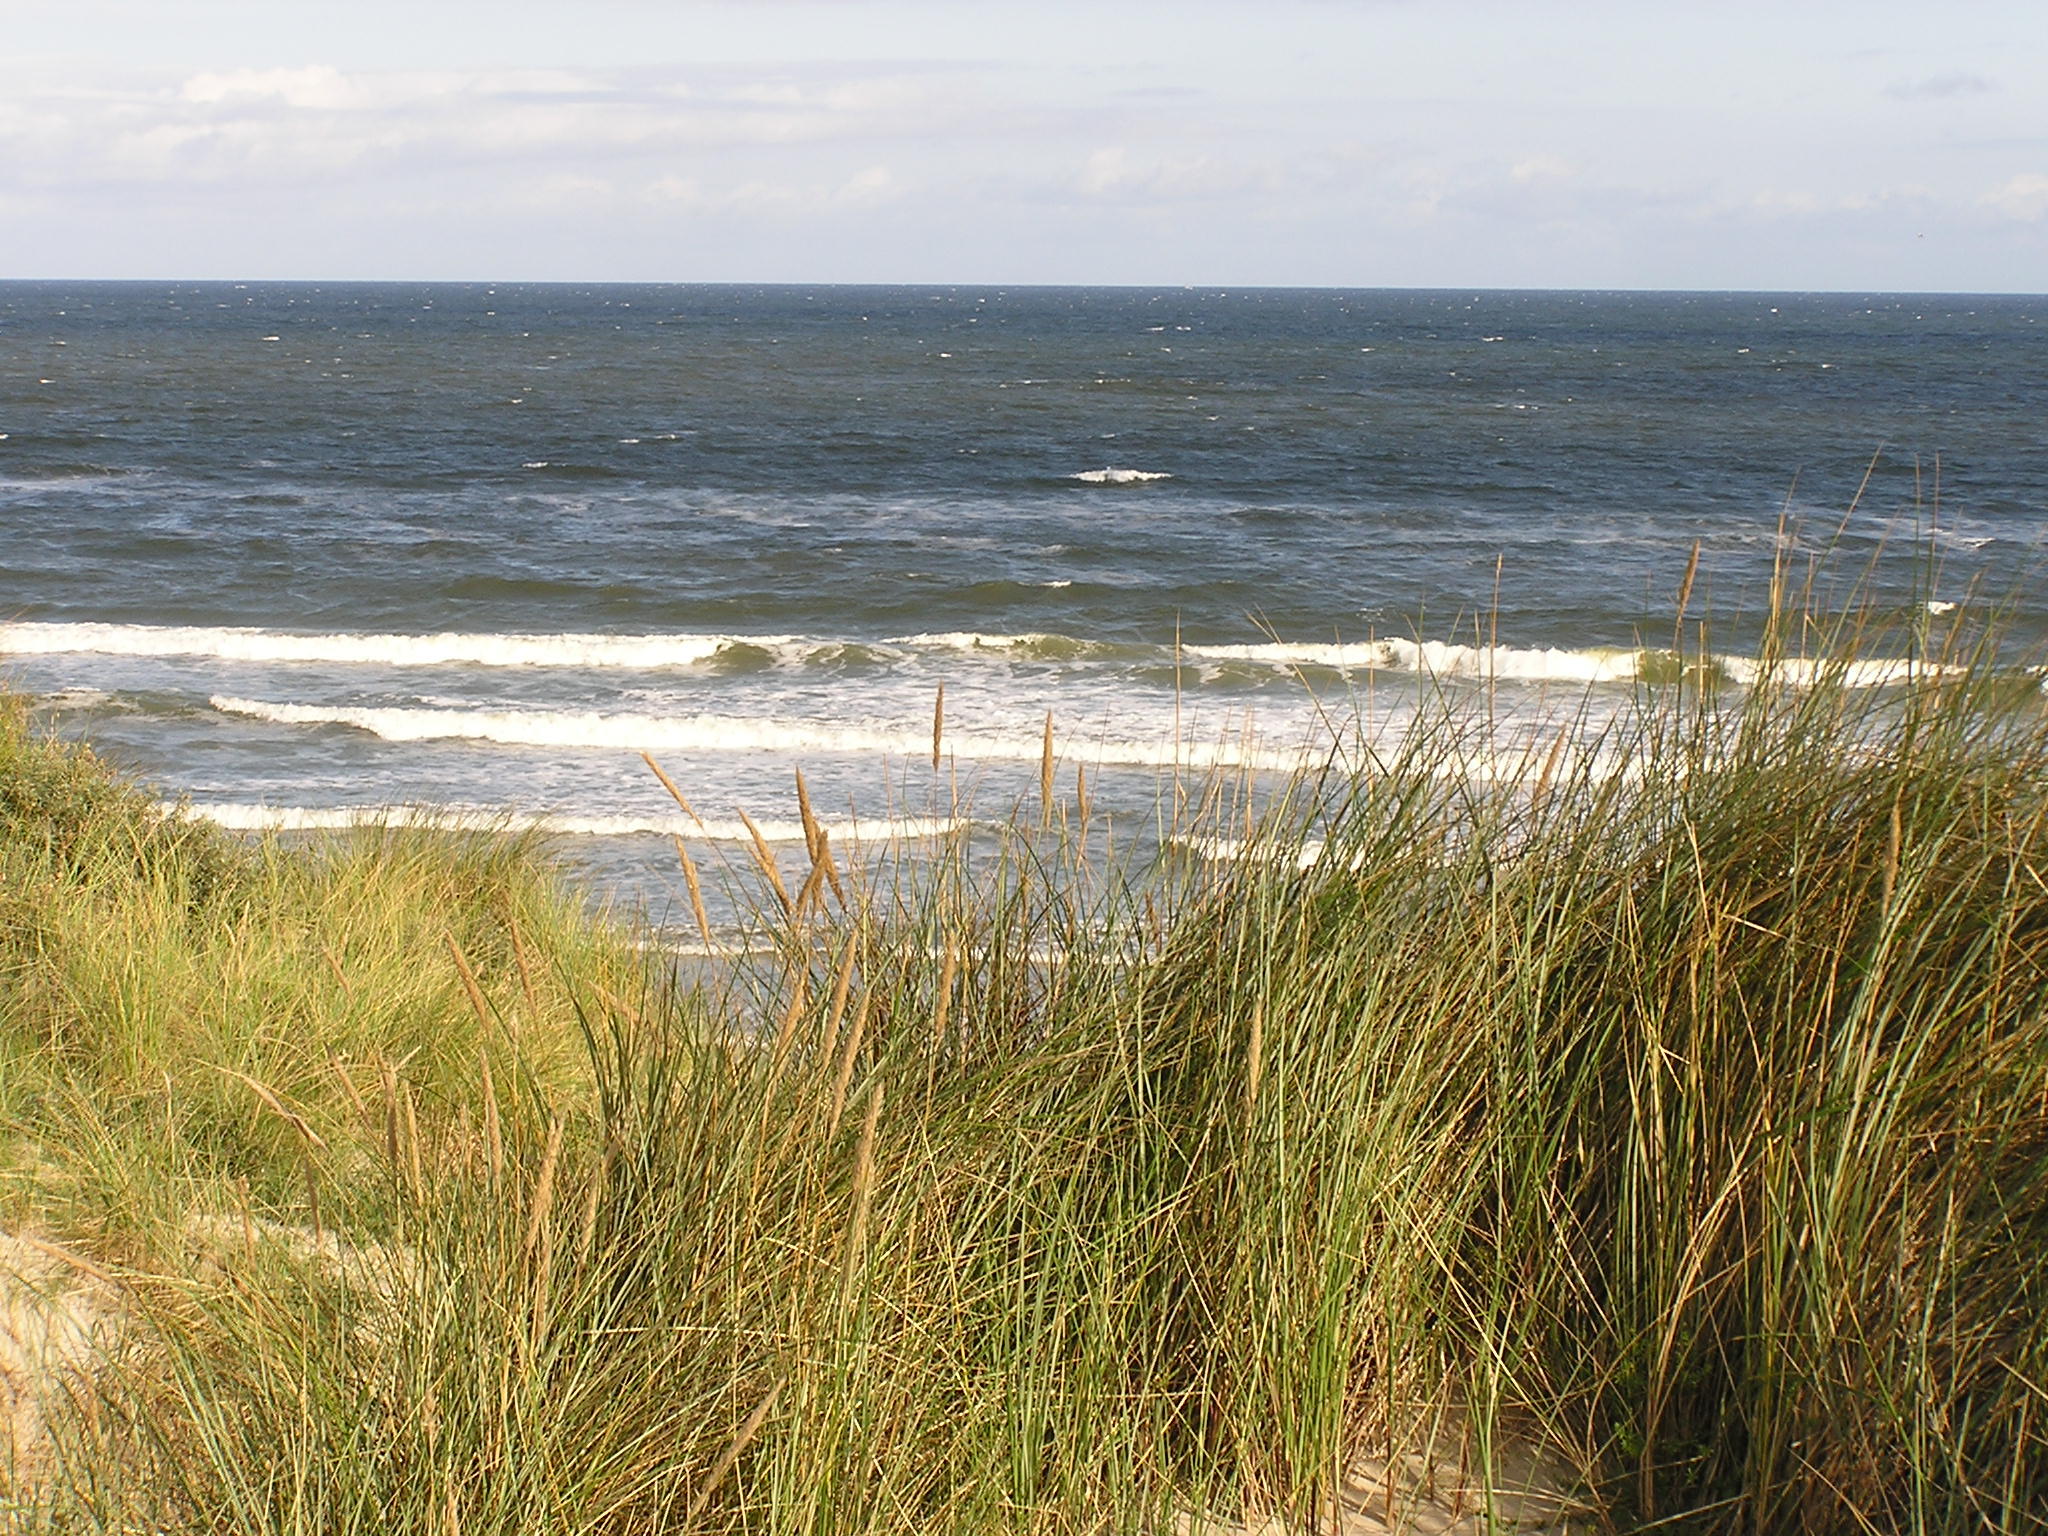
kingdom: Plantae
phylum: Tracheophyta
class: Liliopsida
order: Poales
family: Poaceae
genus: Calamagrostis
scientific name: Calamagrostis arenaria
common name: European beachgrass
